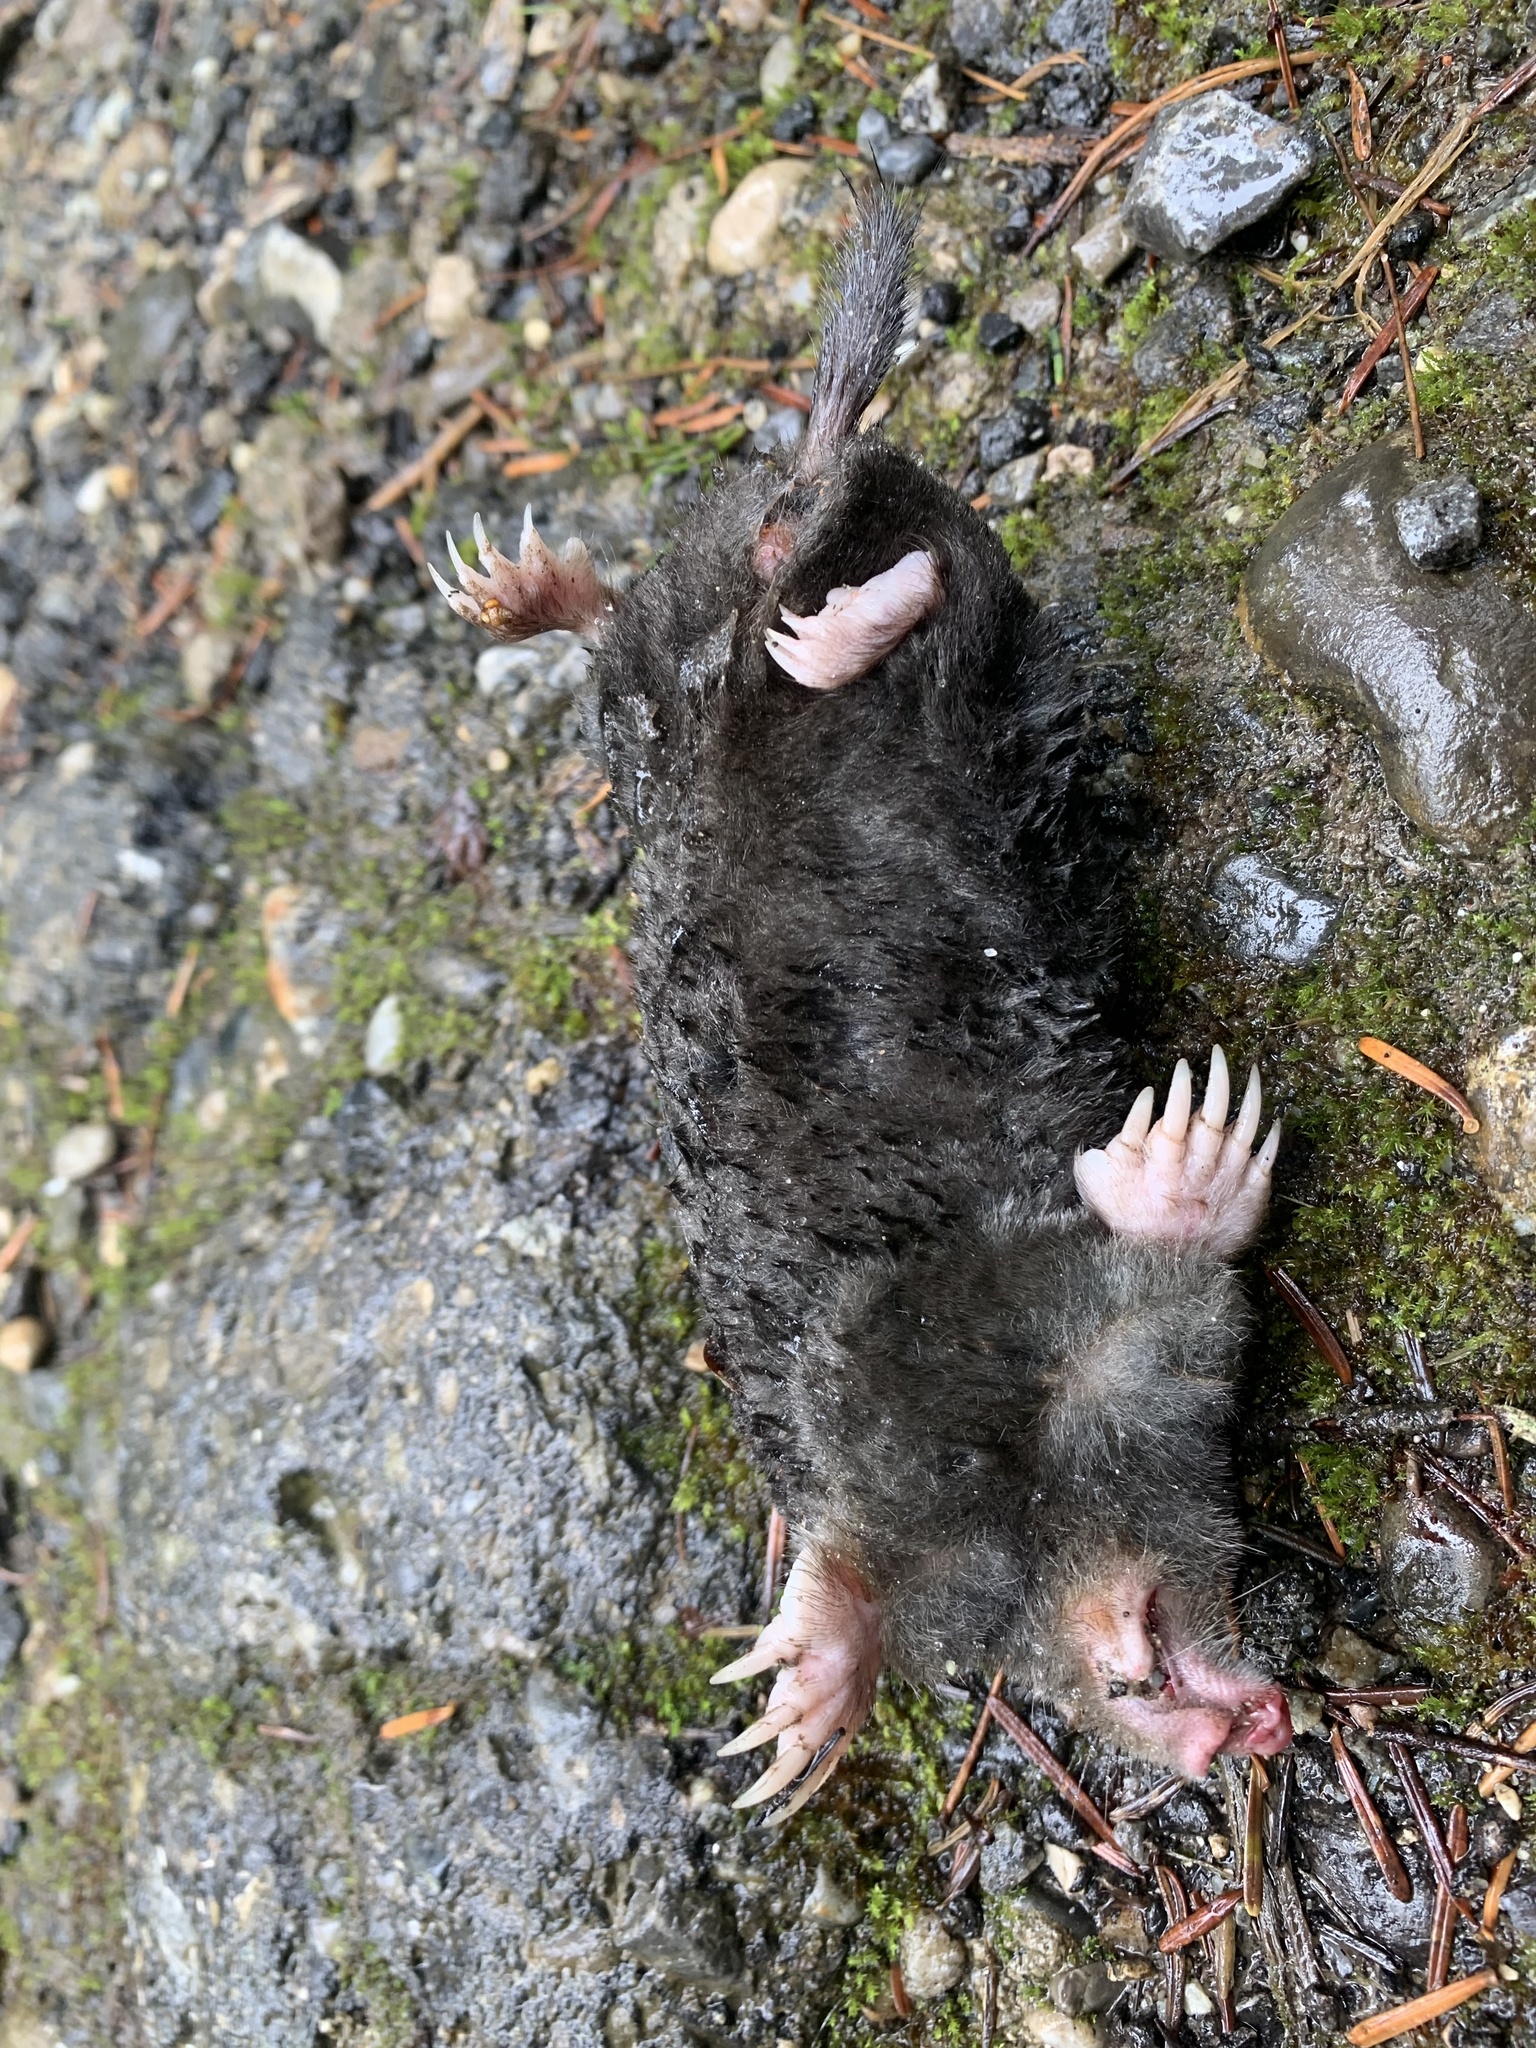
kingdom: Animalia
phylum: Chordata
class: Mammalia
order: Soricomorpha
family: Talpidae
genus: Talpa
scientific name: Talpa europaea
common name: European mole
